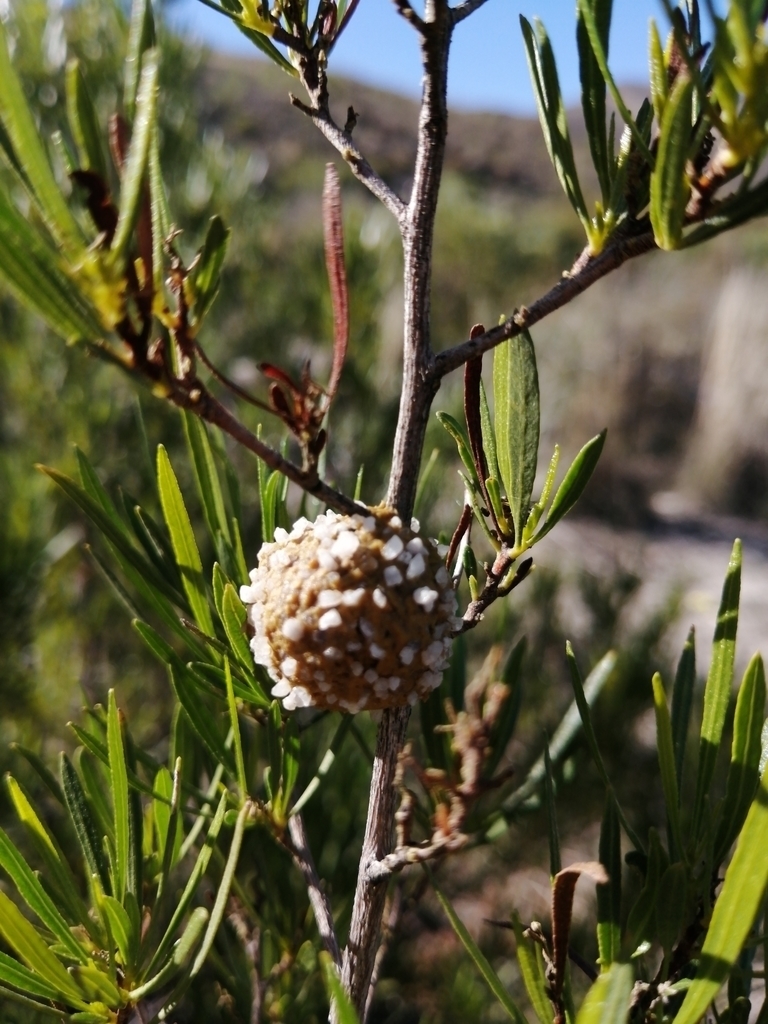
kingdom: Animalia
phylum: Arthropoda
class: Insecta
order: Hymenoptera
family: Megachilidae
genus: Othinosmia
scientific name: Othinosmia globicola
